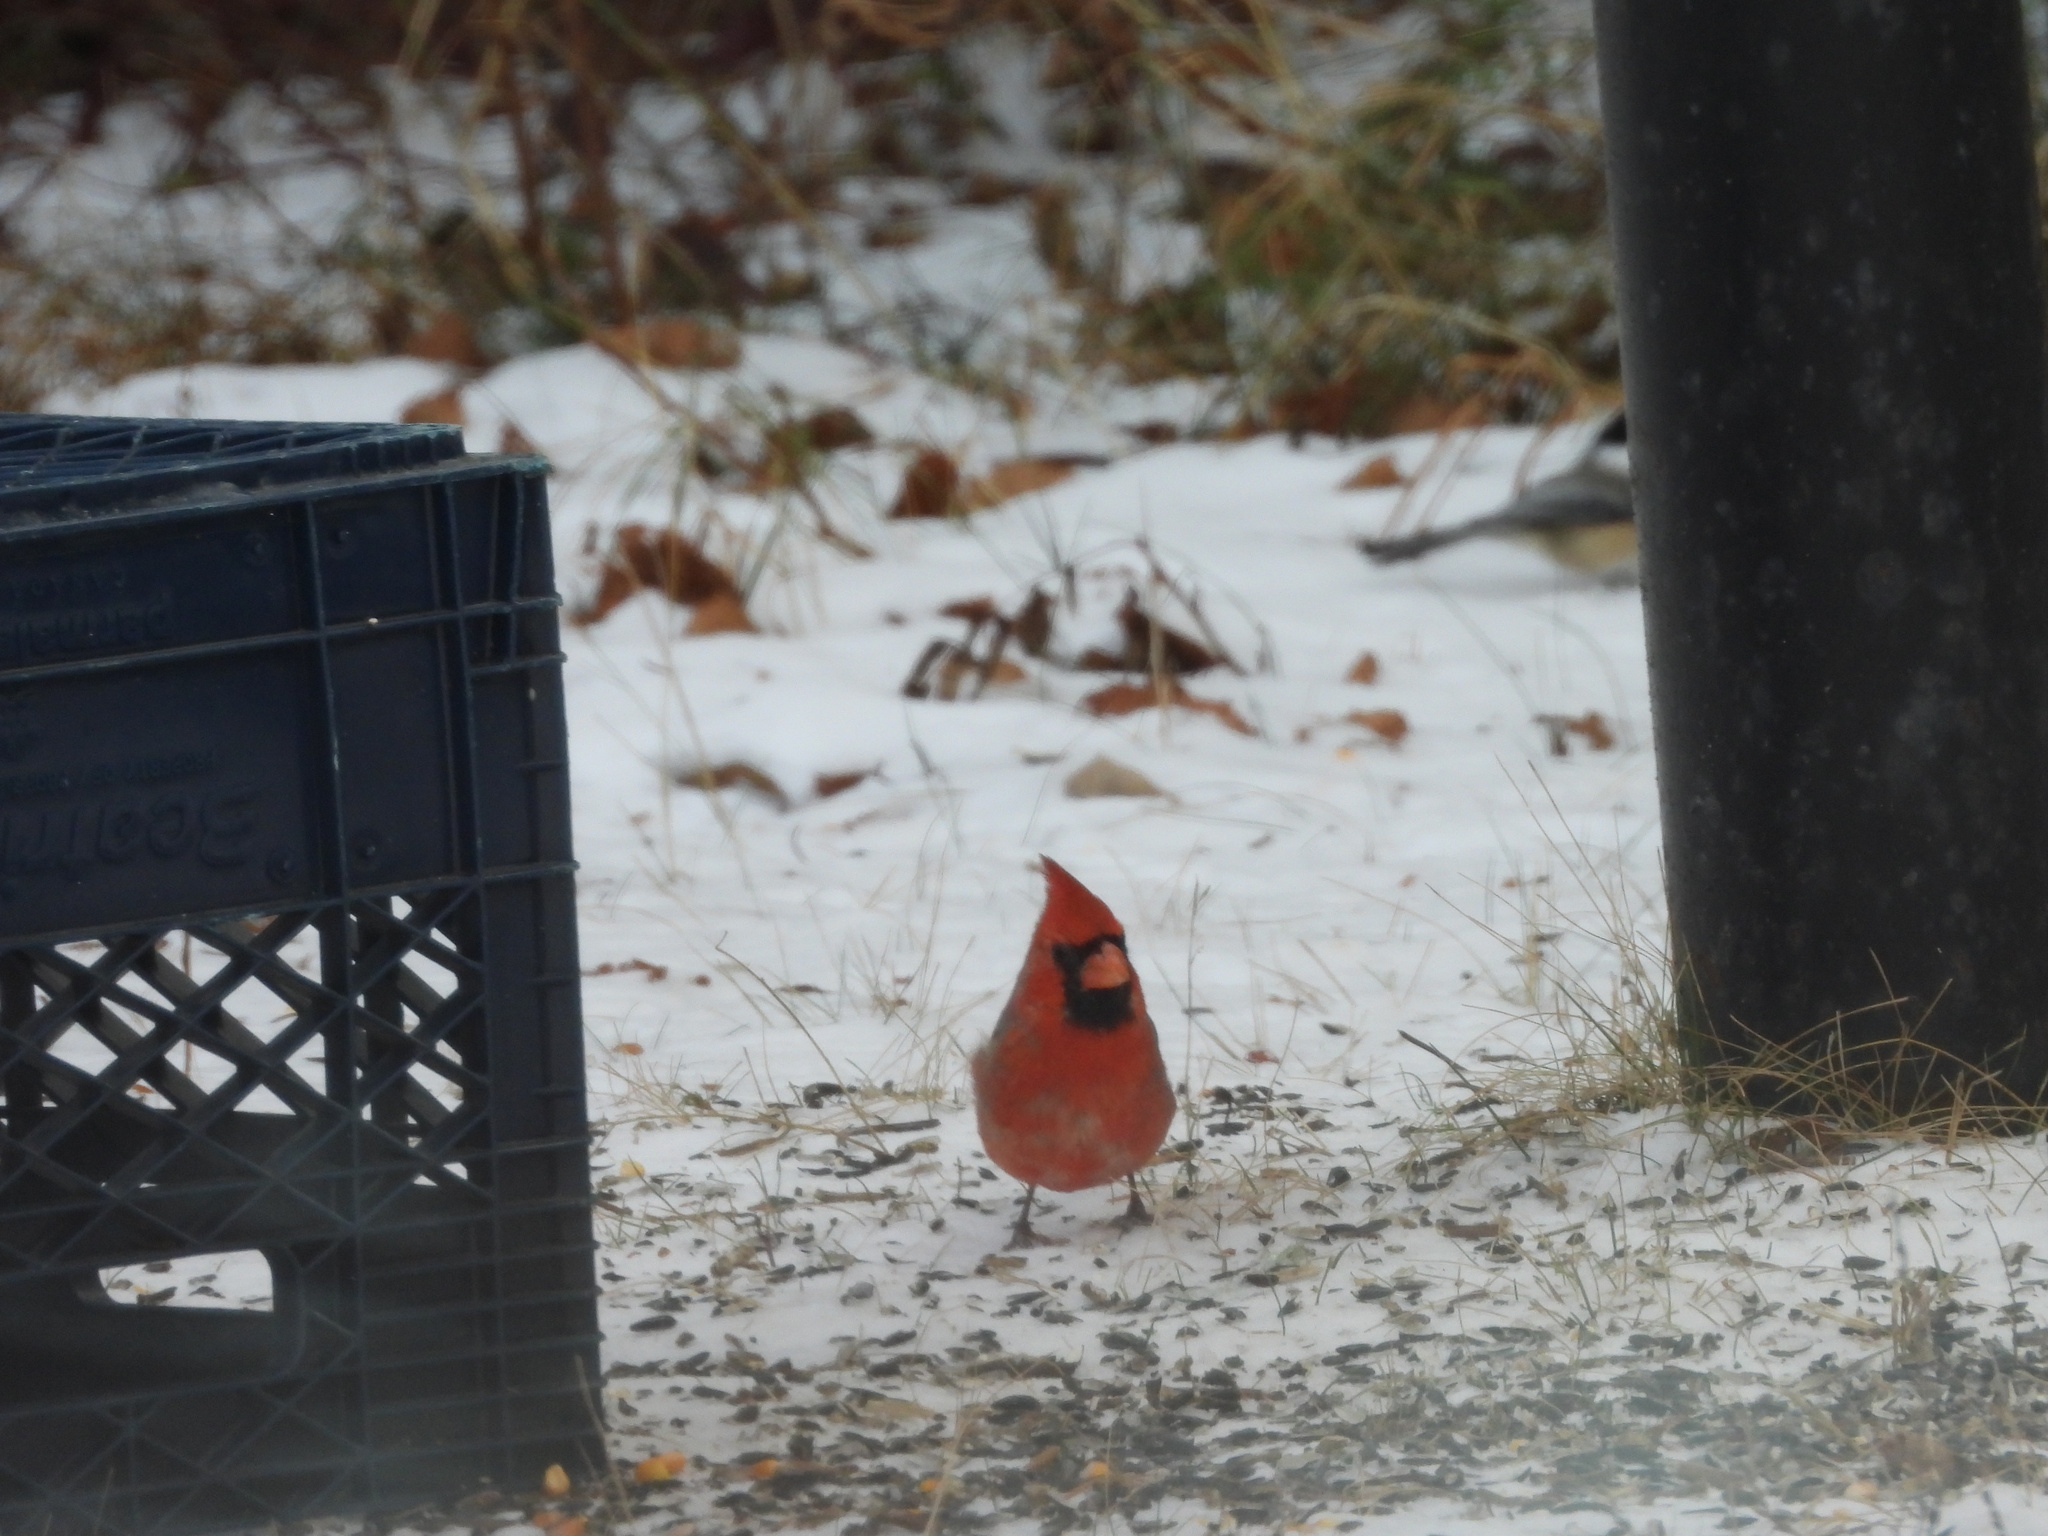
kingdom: Animalia
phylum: Chordata
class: Aves
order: Passeriformes
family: Cardinalidae
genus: Cardinalis
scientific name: Cardinalis cardinalis
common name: Northern cardinal
